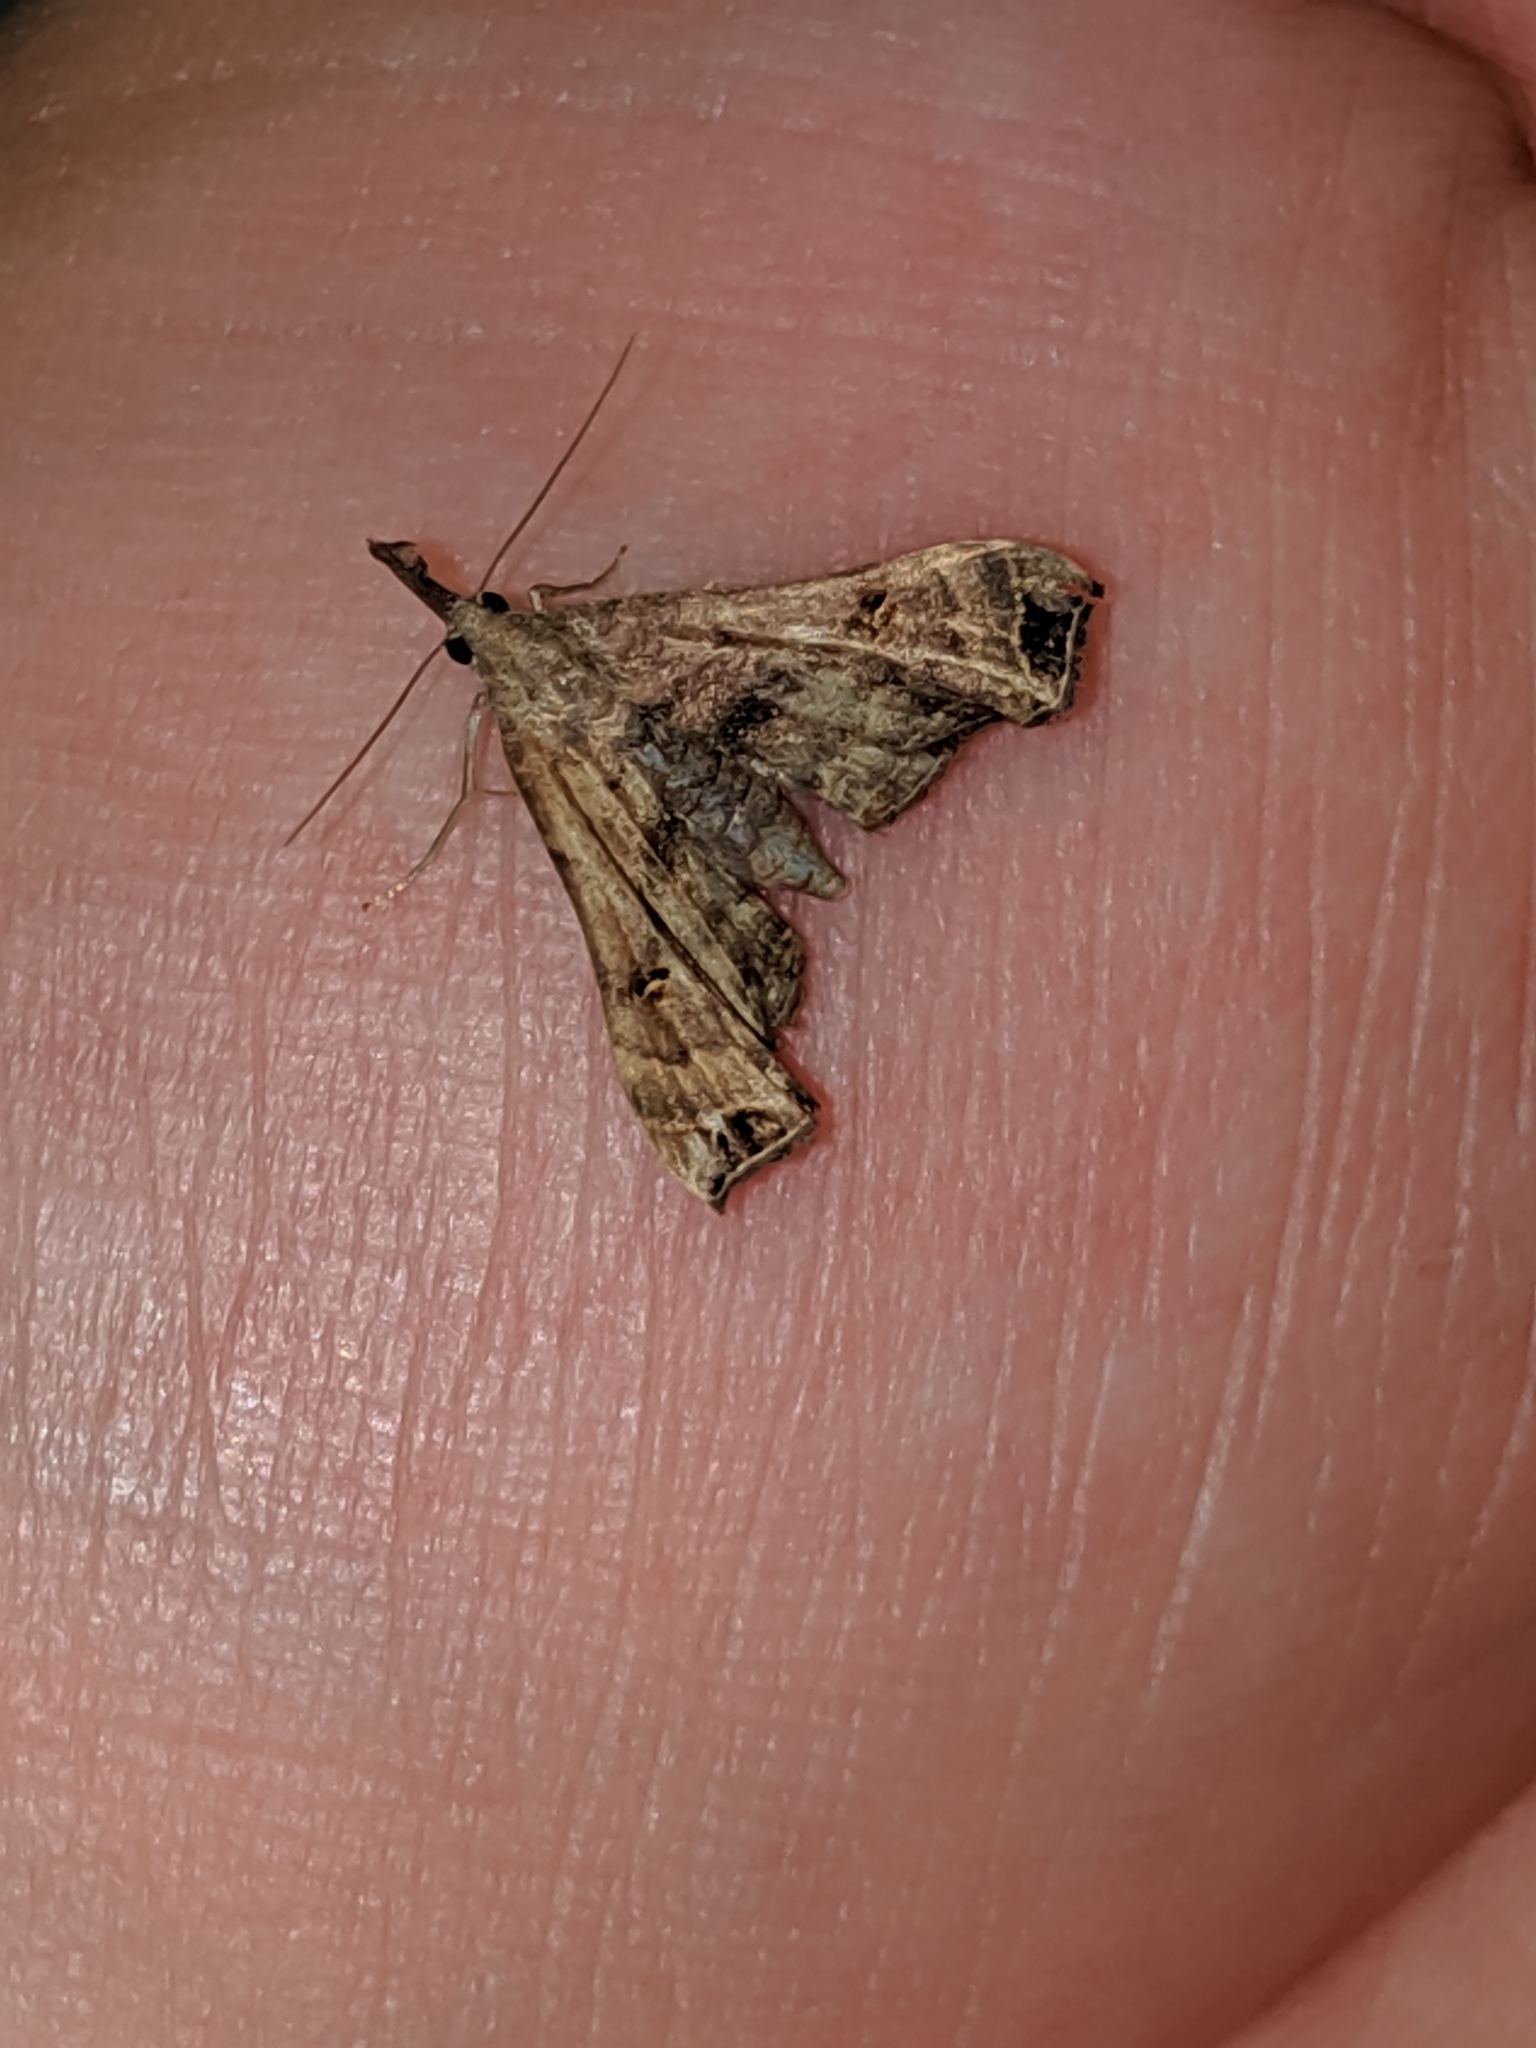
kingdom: Animalia
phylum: Arthropoda
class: Insecta
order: Lepidoptera
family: Erebidae
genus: Palthis
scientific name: Palthis asopialis
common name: Faint-spotted palthis moth
